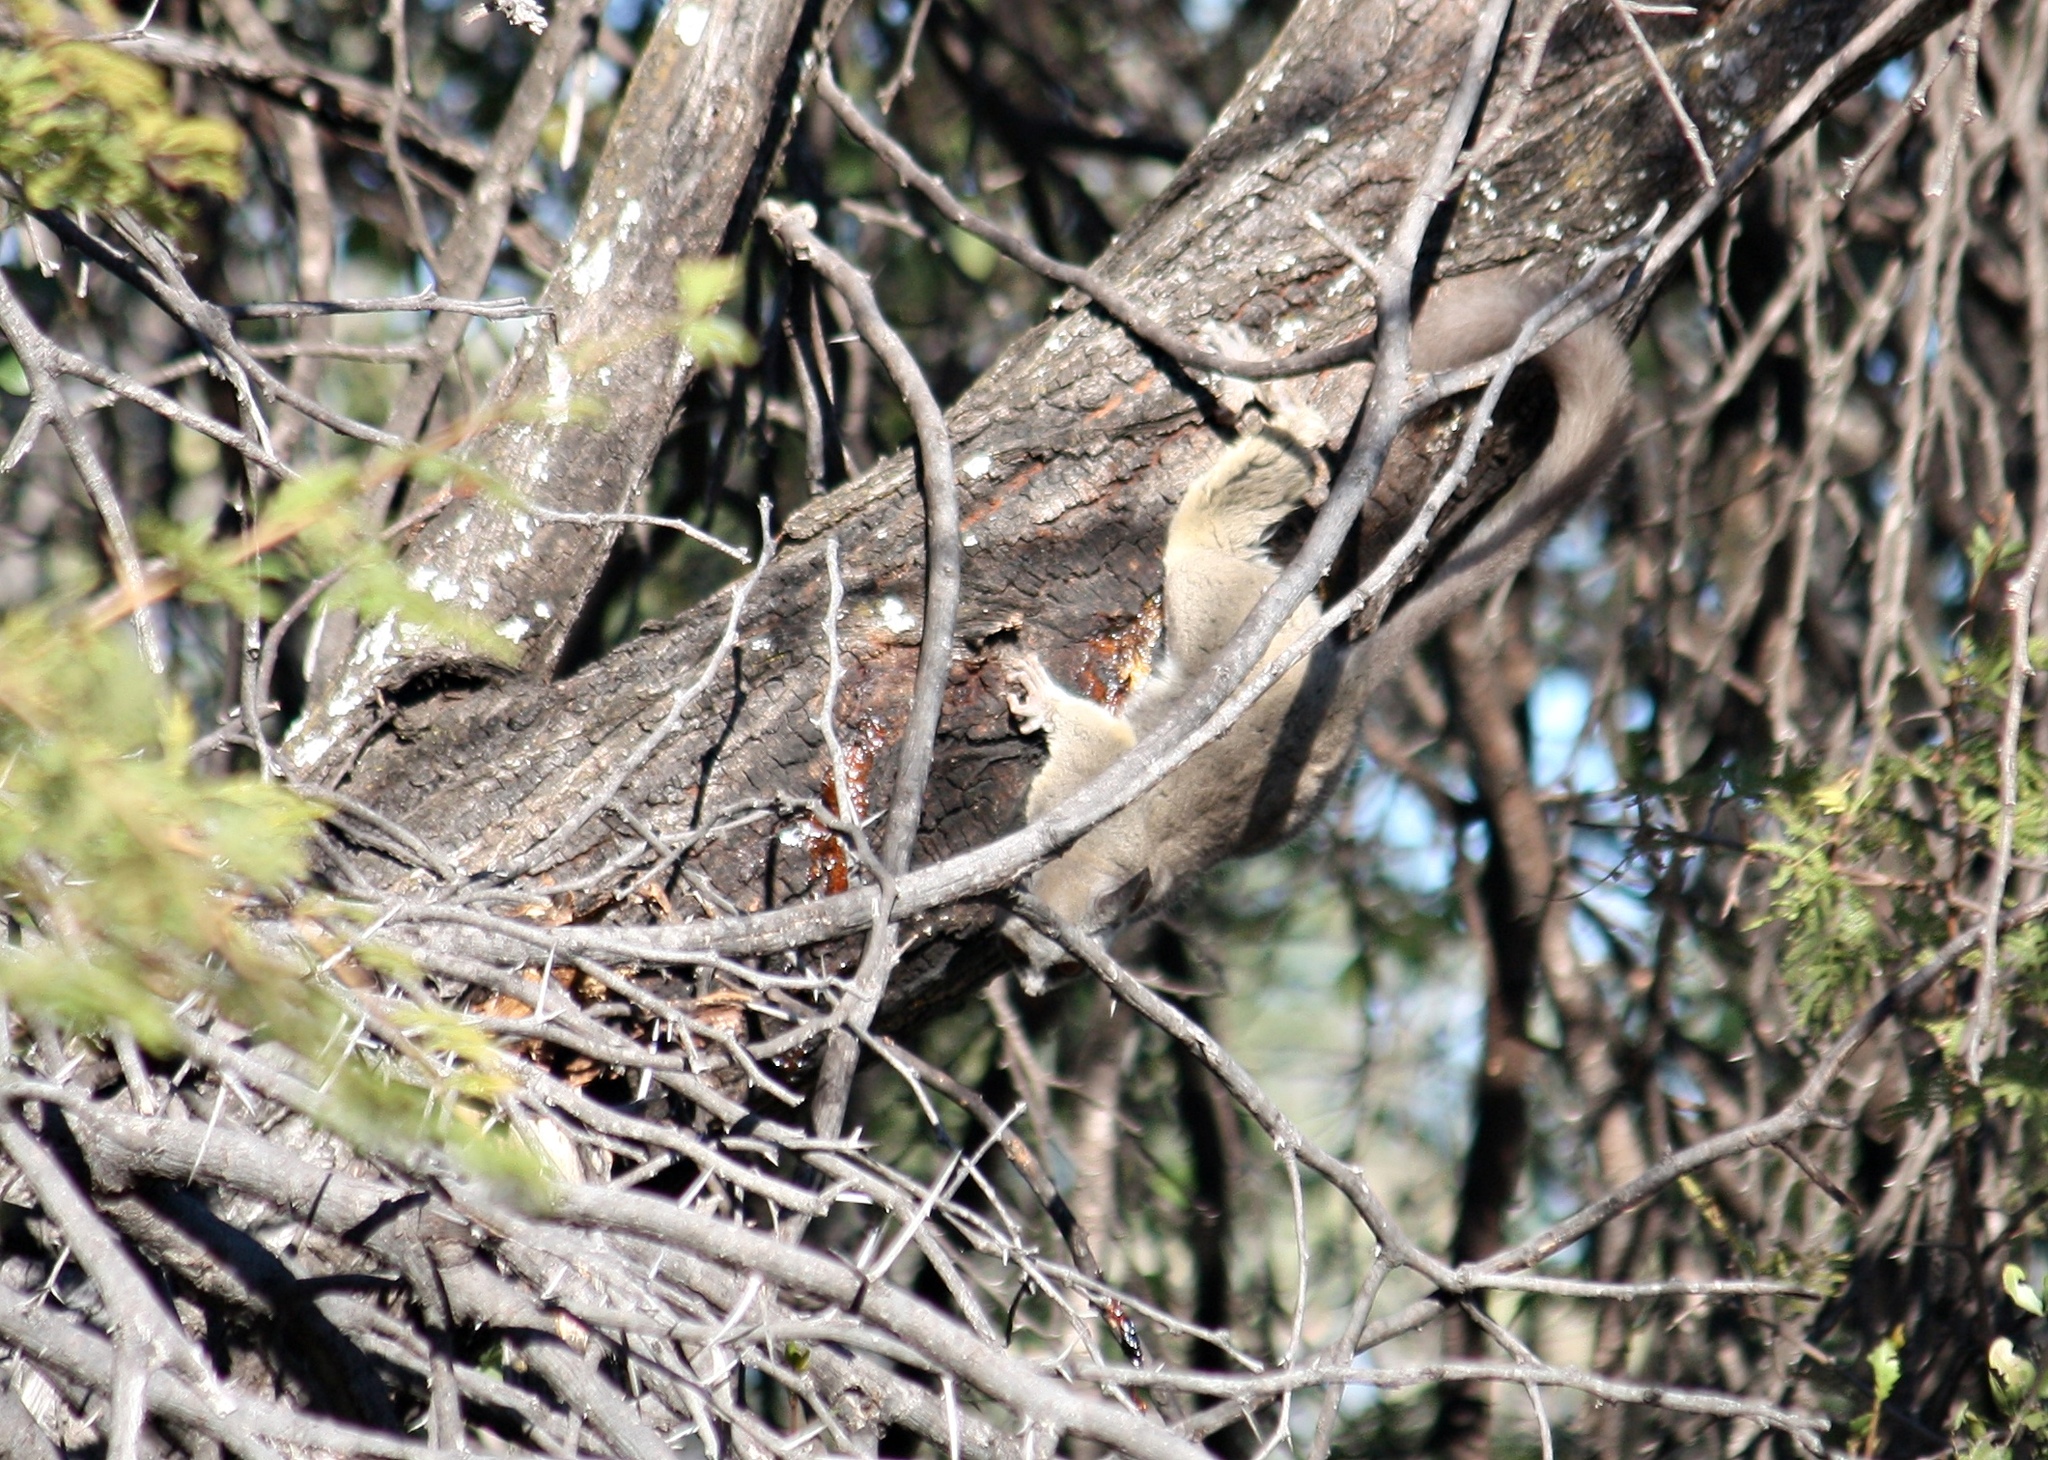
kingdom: Animalia
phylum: Chordata
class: Mammalia
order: Primates
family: Galagidae
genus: Galago
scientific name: Galago moholi
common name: Moholi bushbaby
